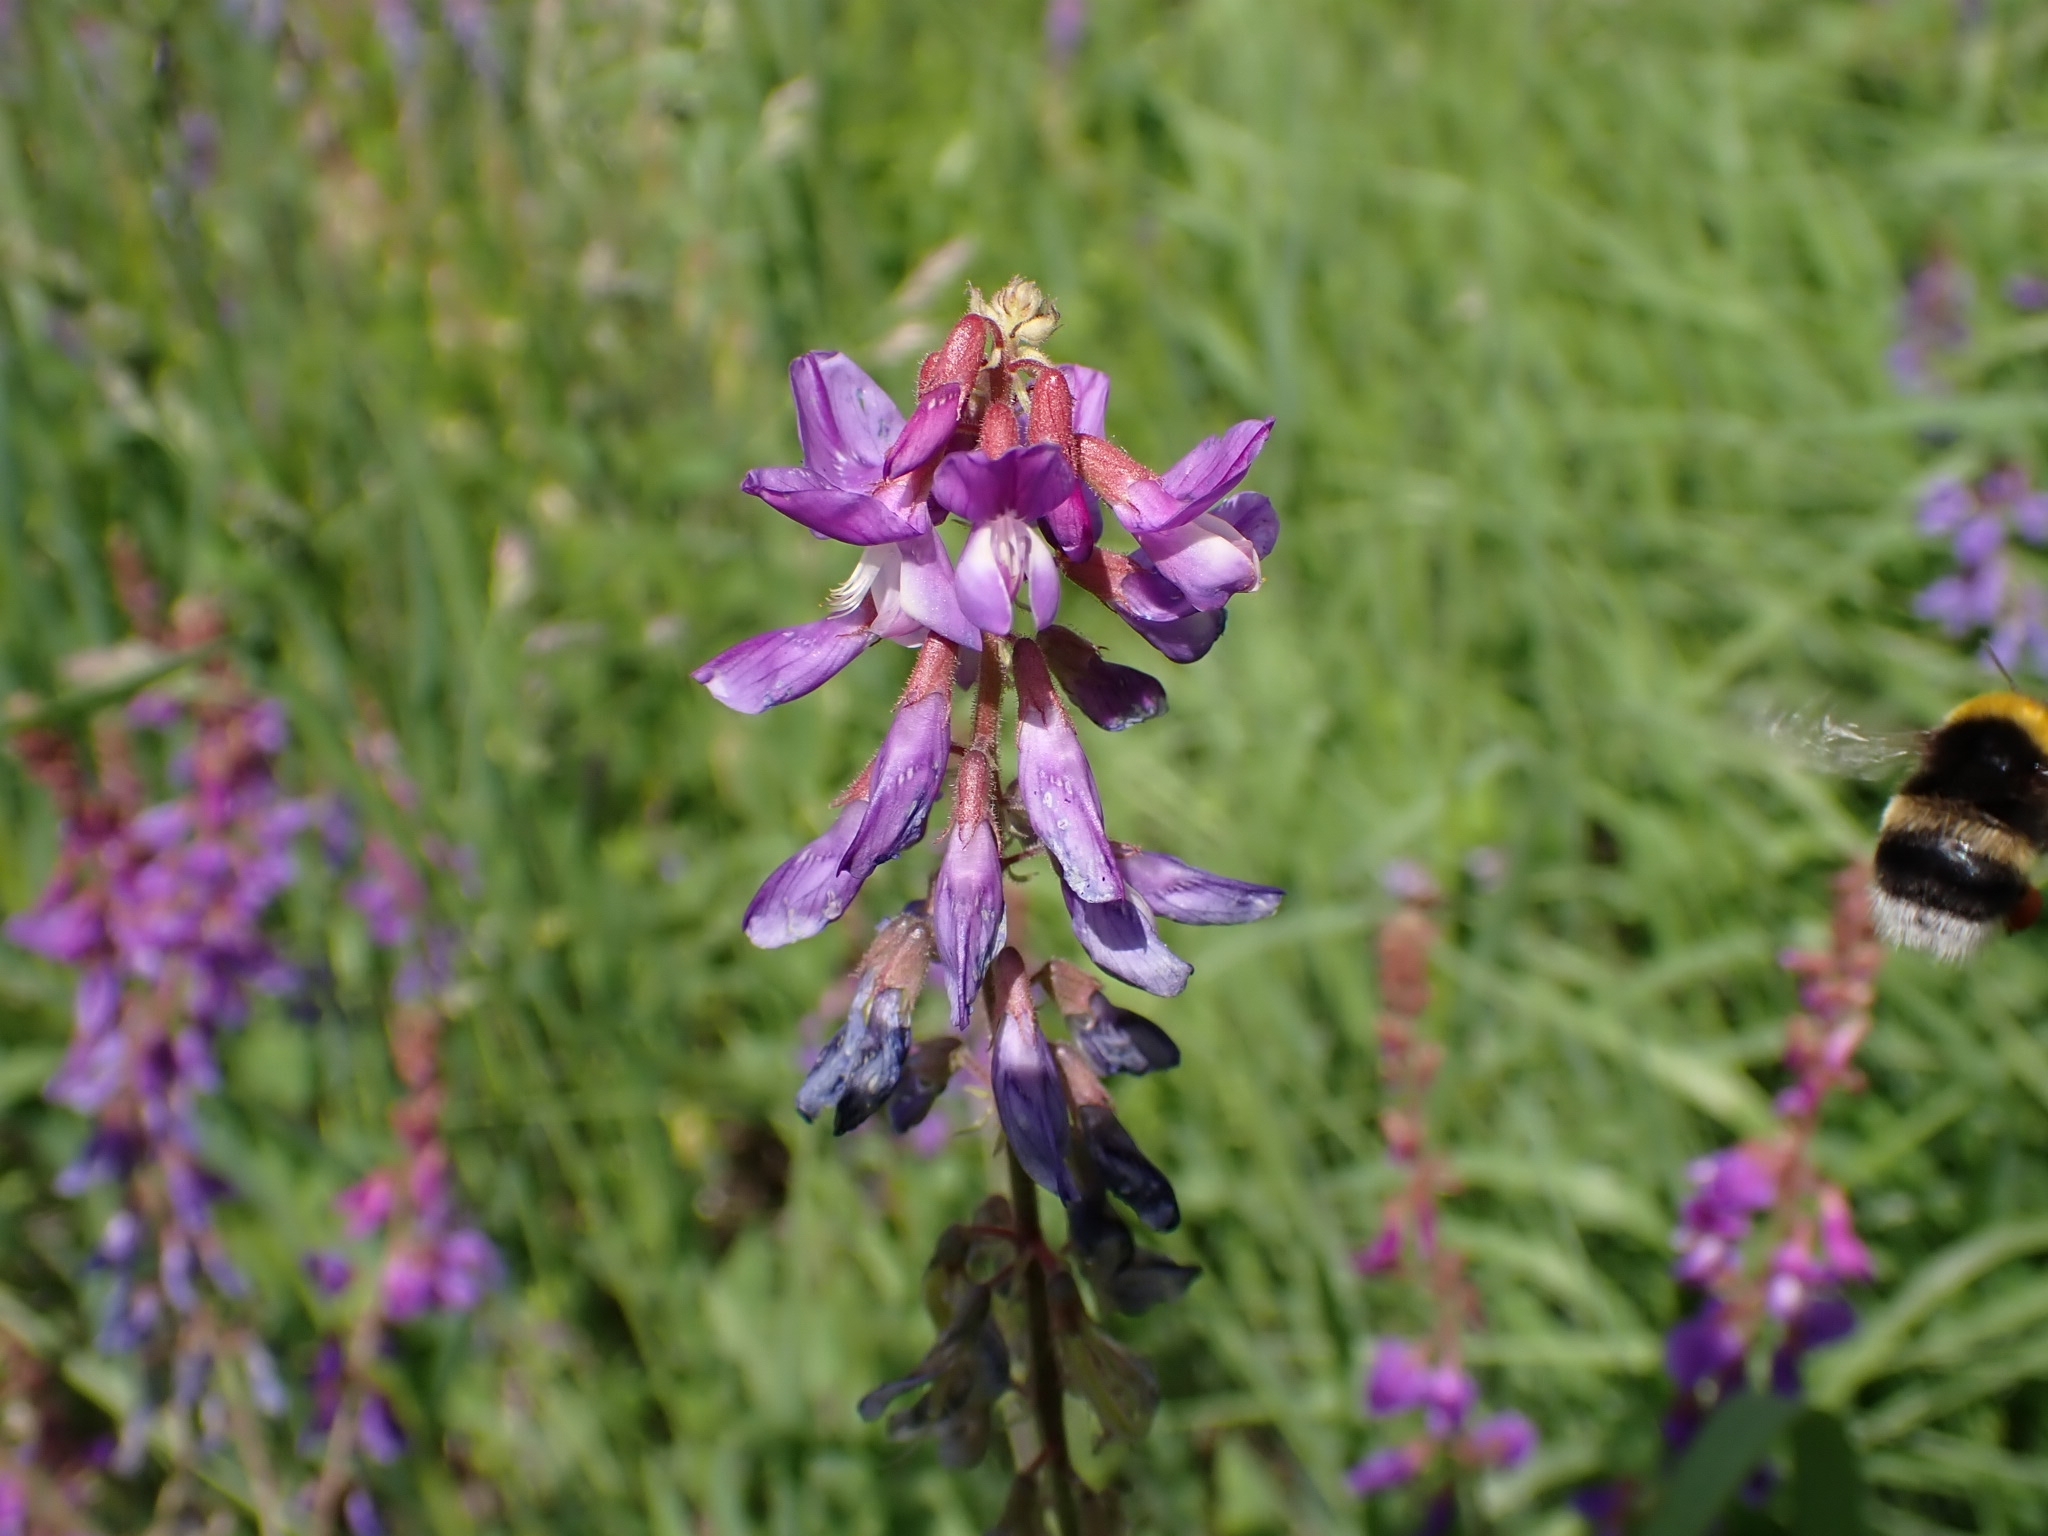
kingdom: Plantae
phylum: Tracheophyta
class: Magnoliopsida
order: Fabales
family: Fabaceae
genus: Galega
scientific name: Galega orientalis
